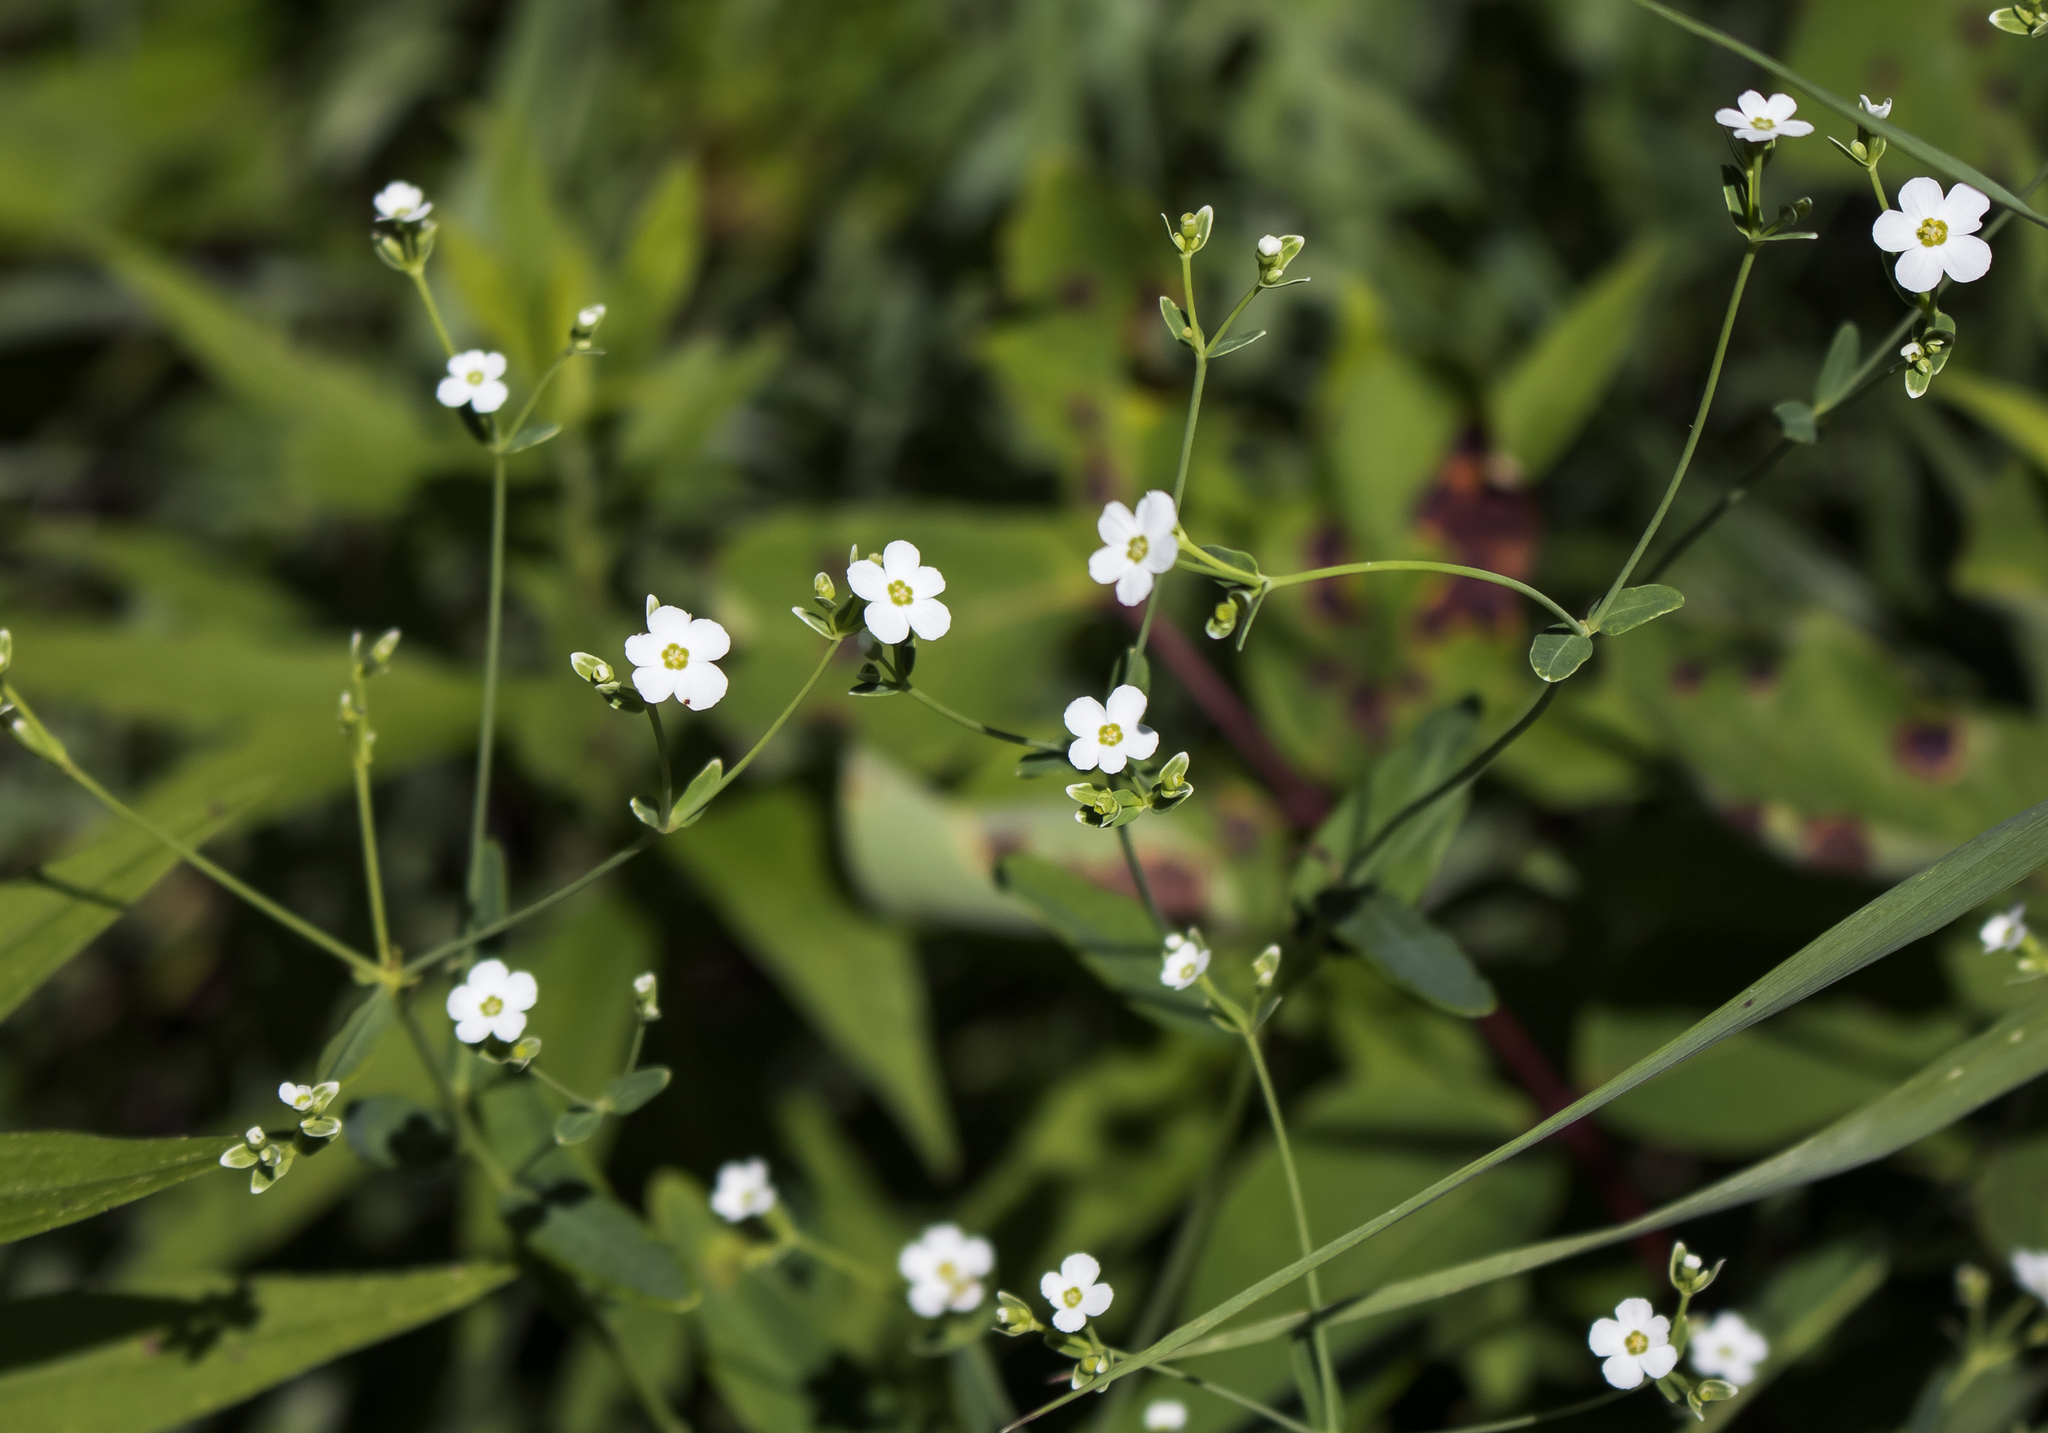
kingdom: Plantae
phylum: Tracheophyta
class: Magnoliopsida
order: Malpighiales
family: Euphorbiaceae
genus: Euphorbia
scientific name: Euphorbia corollata
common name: Flowering spurge
